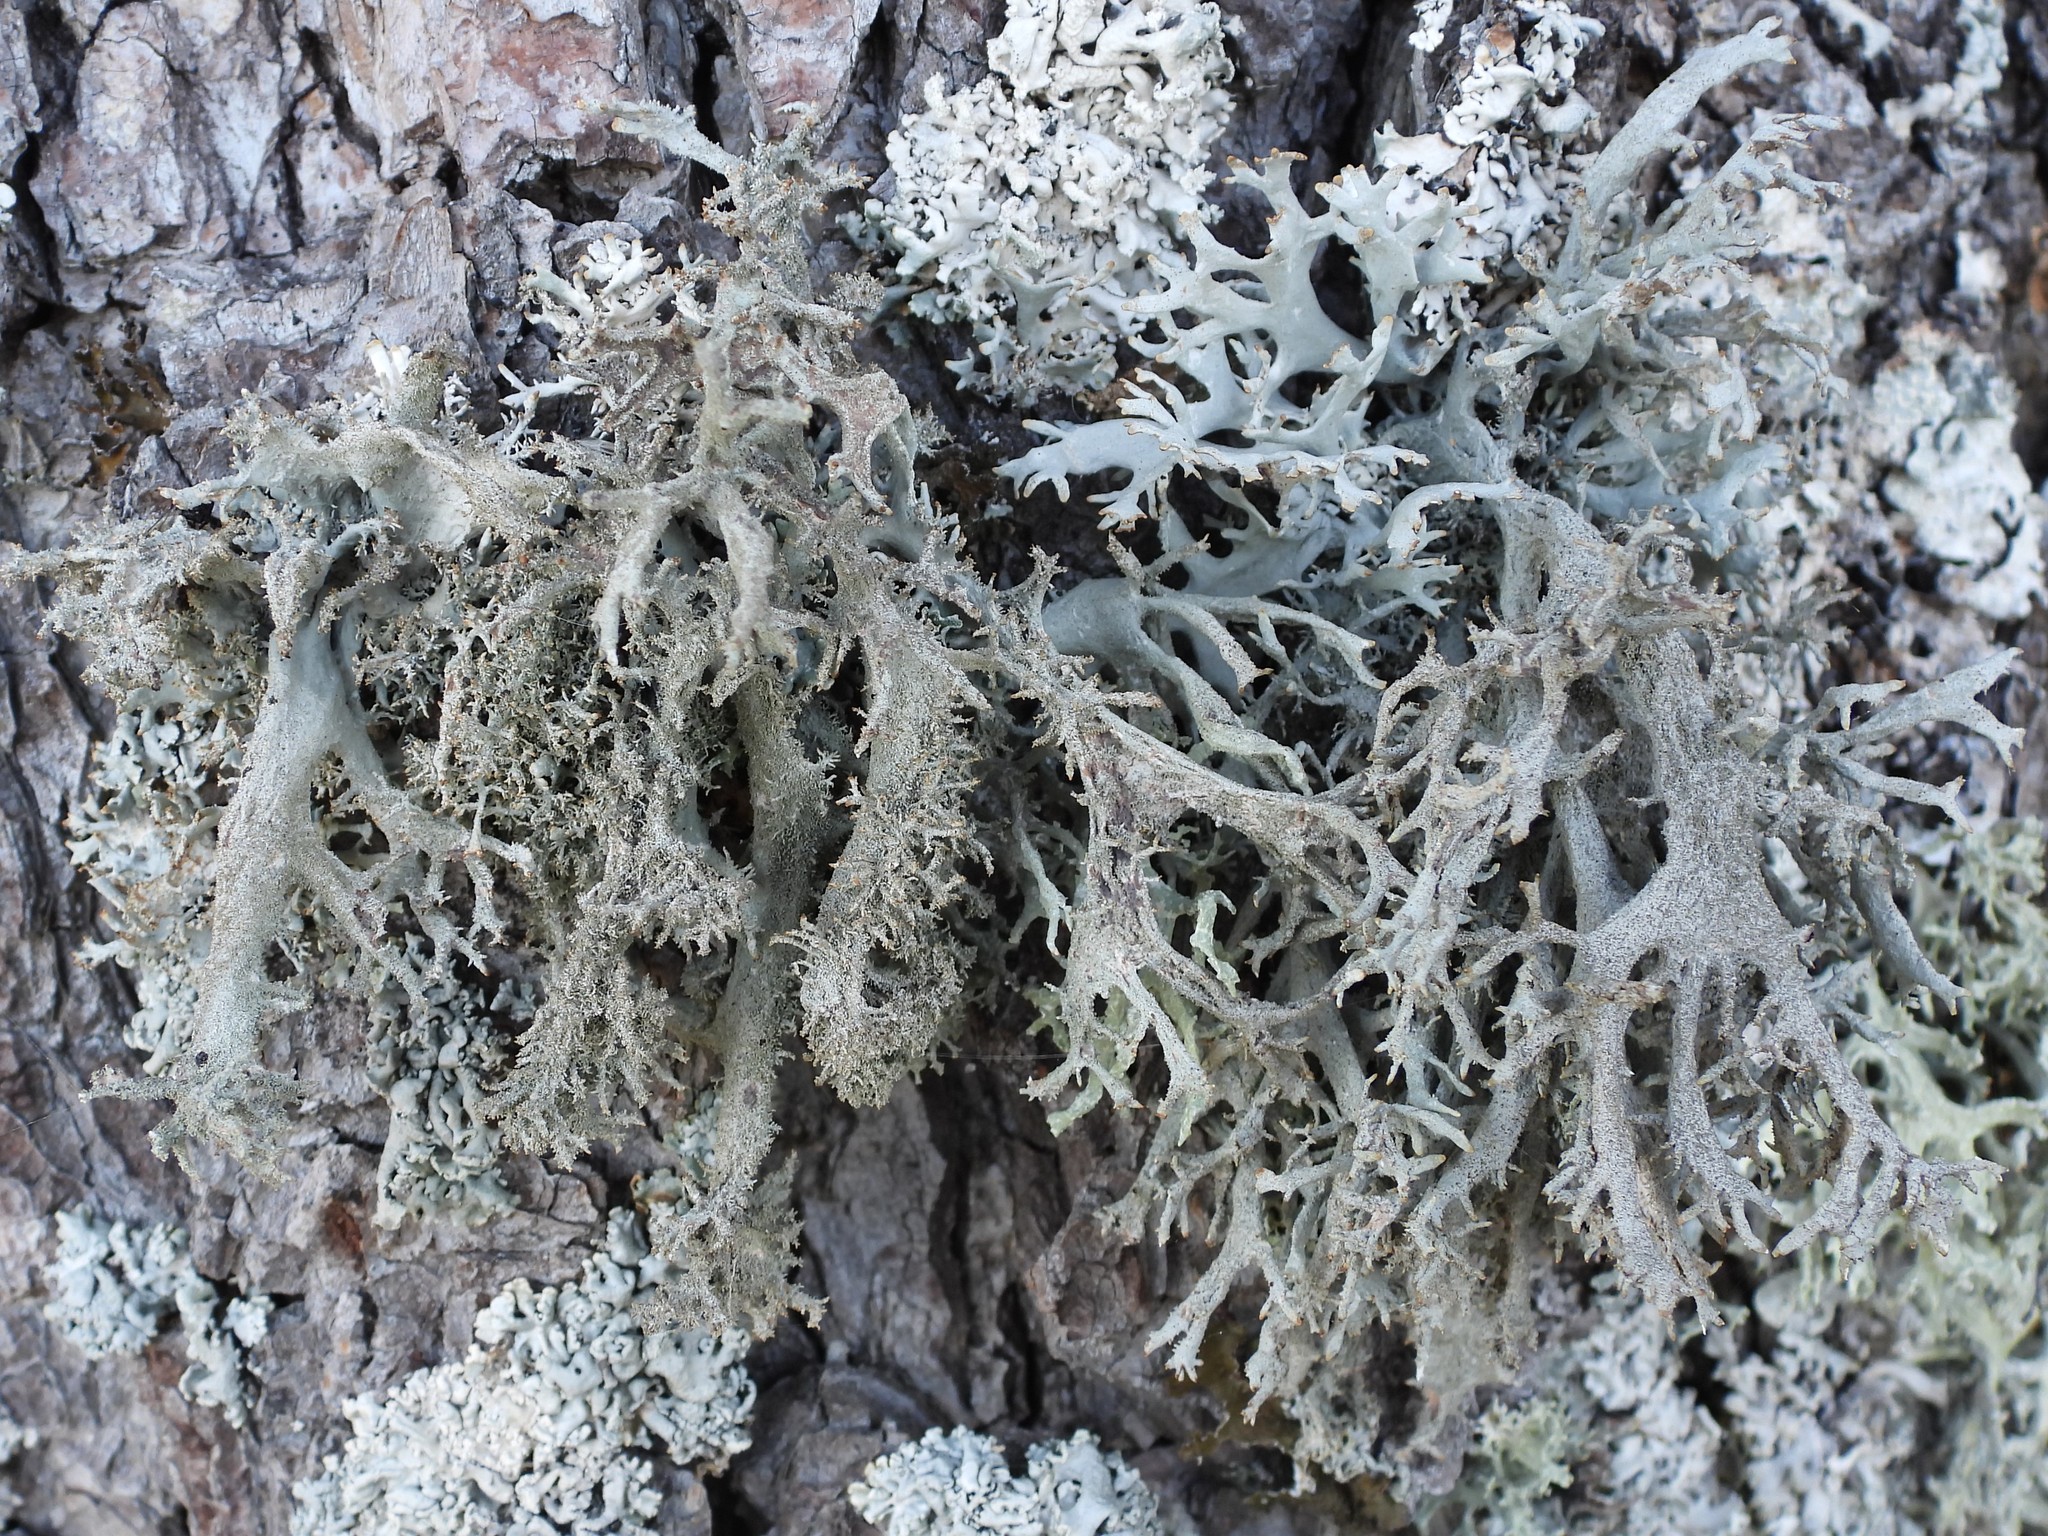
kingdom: Fungi
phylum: Ascomycota
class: Lecanoromycetes
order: Lecanorales
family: Parmeliaceae
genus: Pseudevernia
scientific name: Pseudevernia furfuracea
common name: Tree moss
